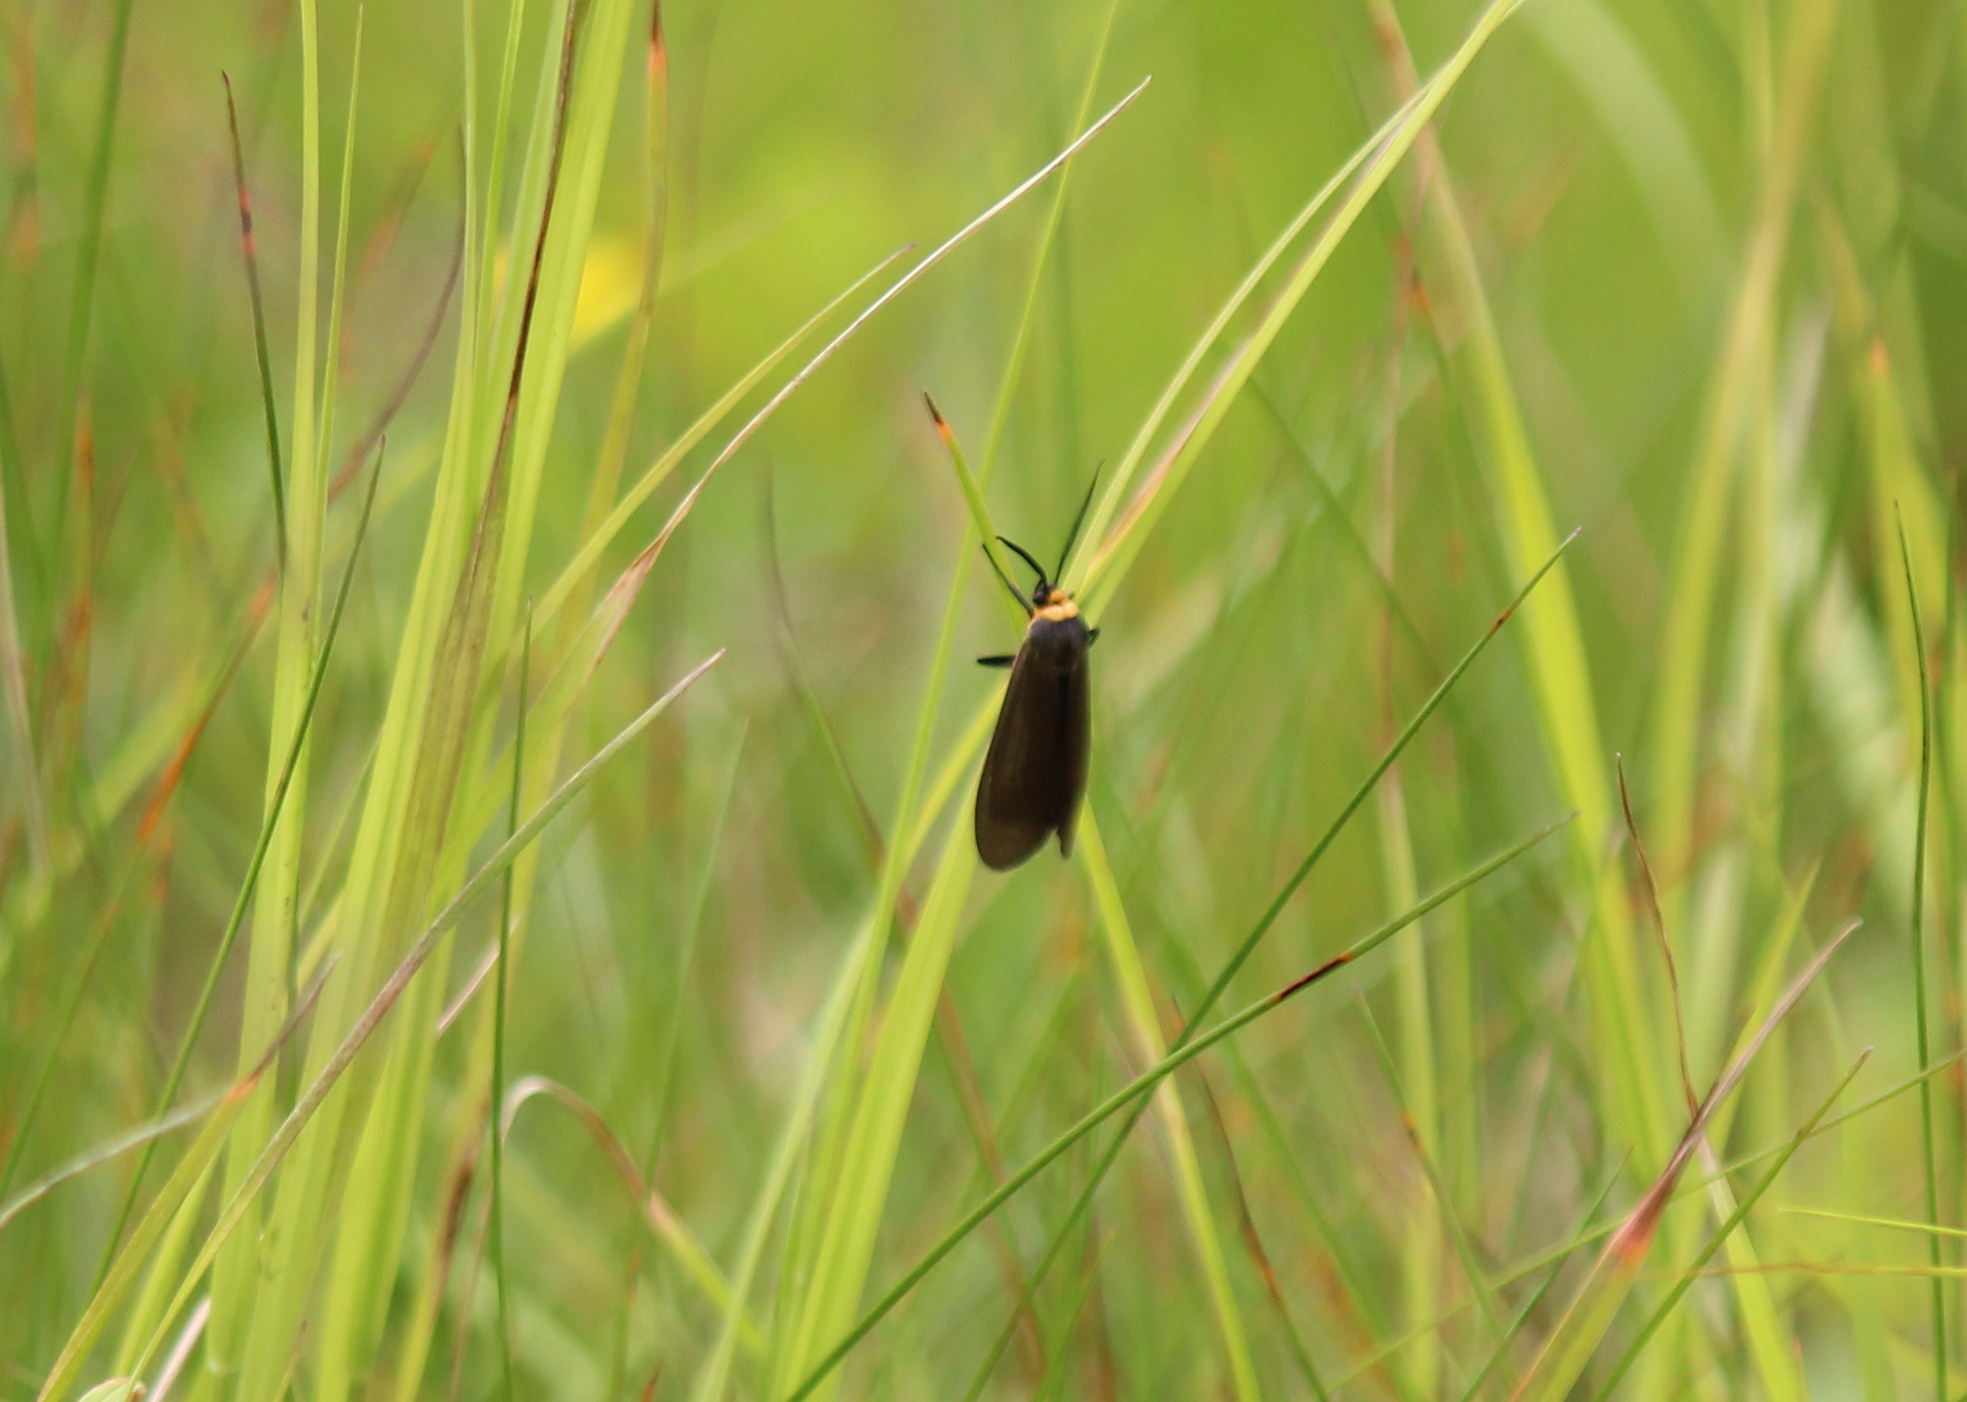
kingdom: Animalia
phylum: Arthropoda
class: Insecta
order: Lepidoptera
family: Erebidae
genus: Cisseps
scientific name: Cisseps fulvicollis
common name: Yellow-collared scape moth
